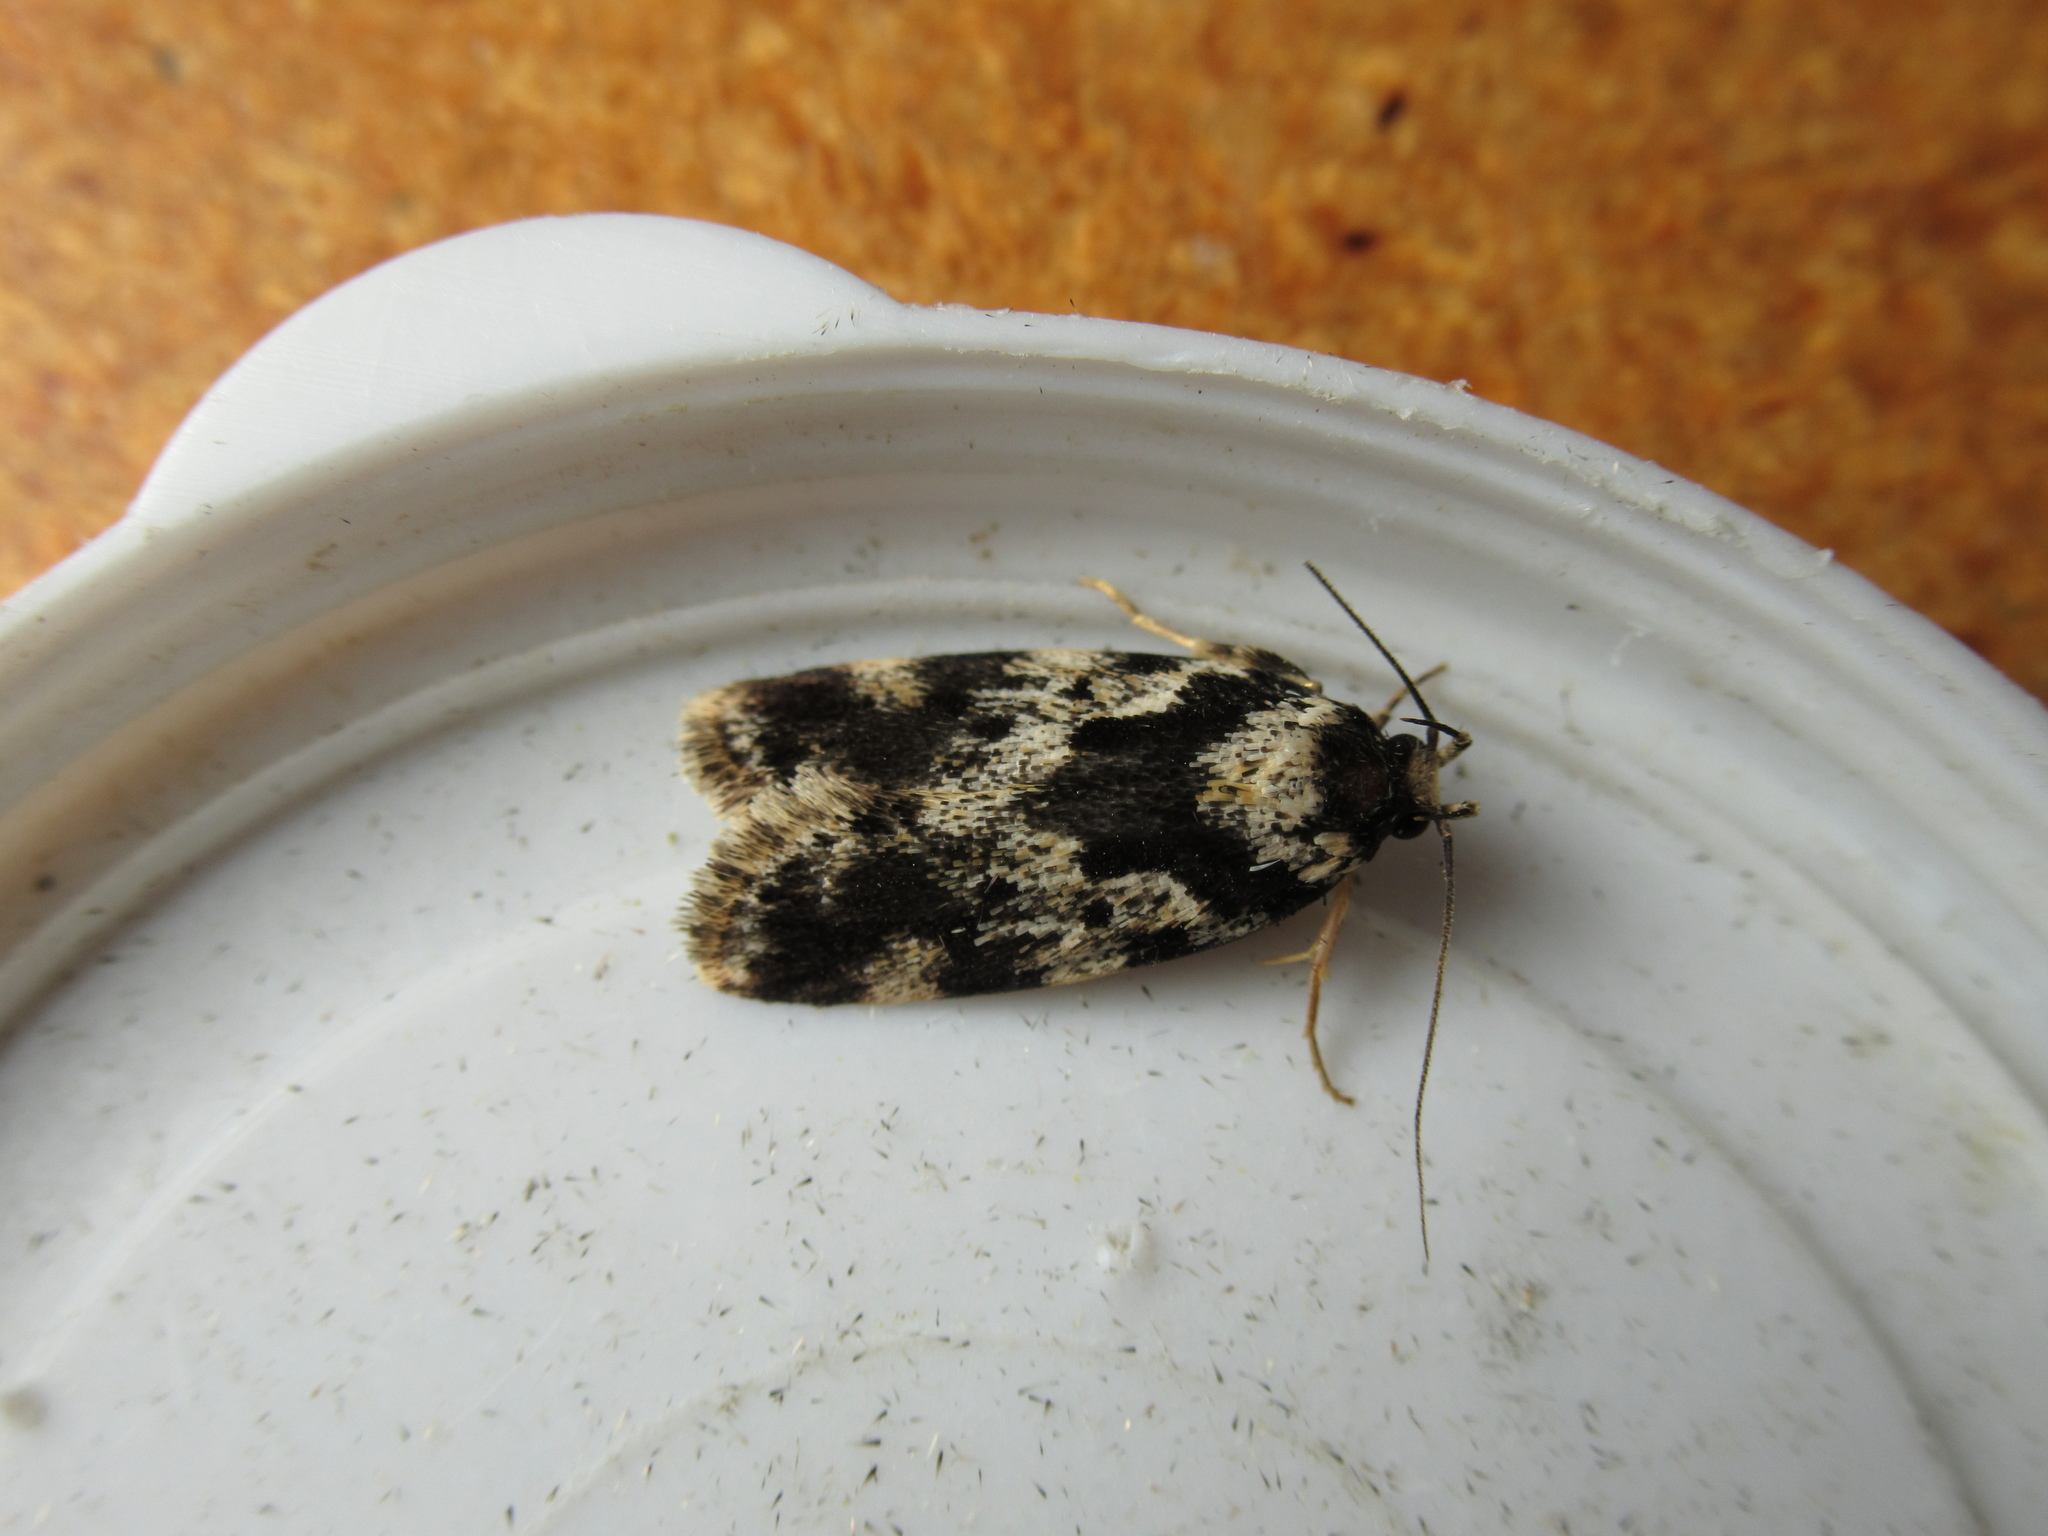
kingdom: Animalia
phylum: Arthropoda
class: Insecta
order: Lepidoptera
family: Oecophoridae
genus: Barea
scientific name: Barea confusella
